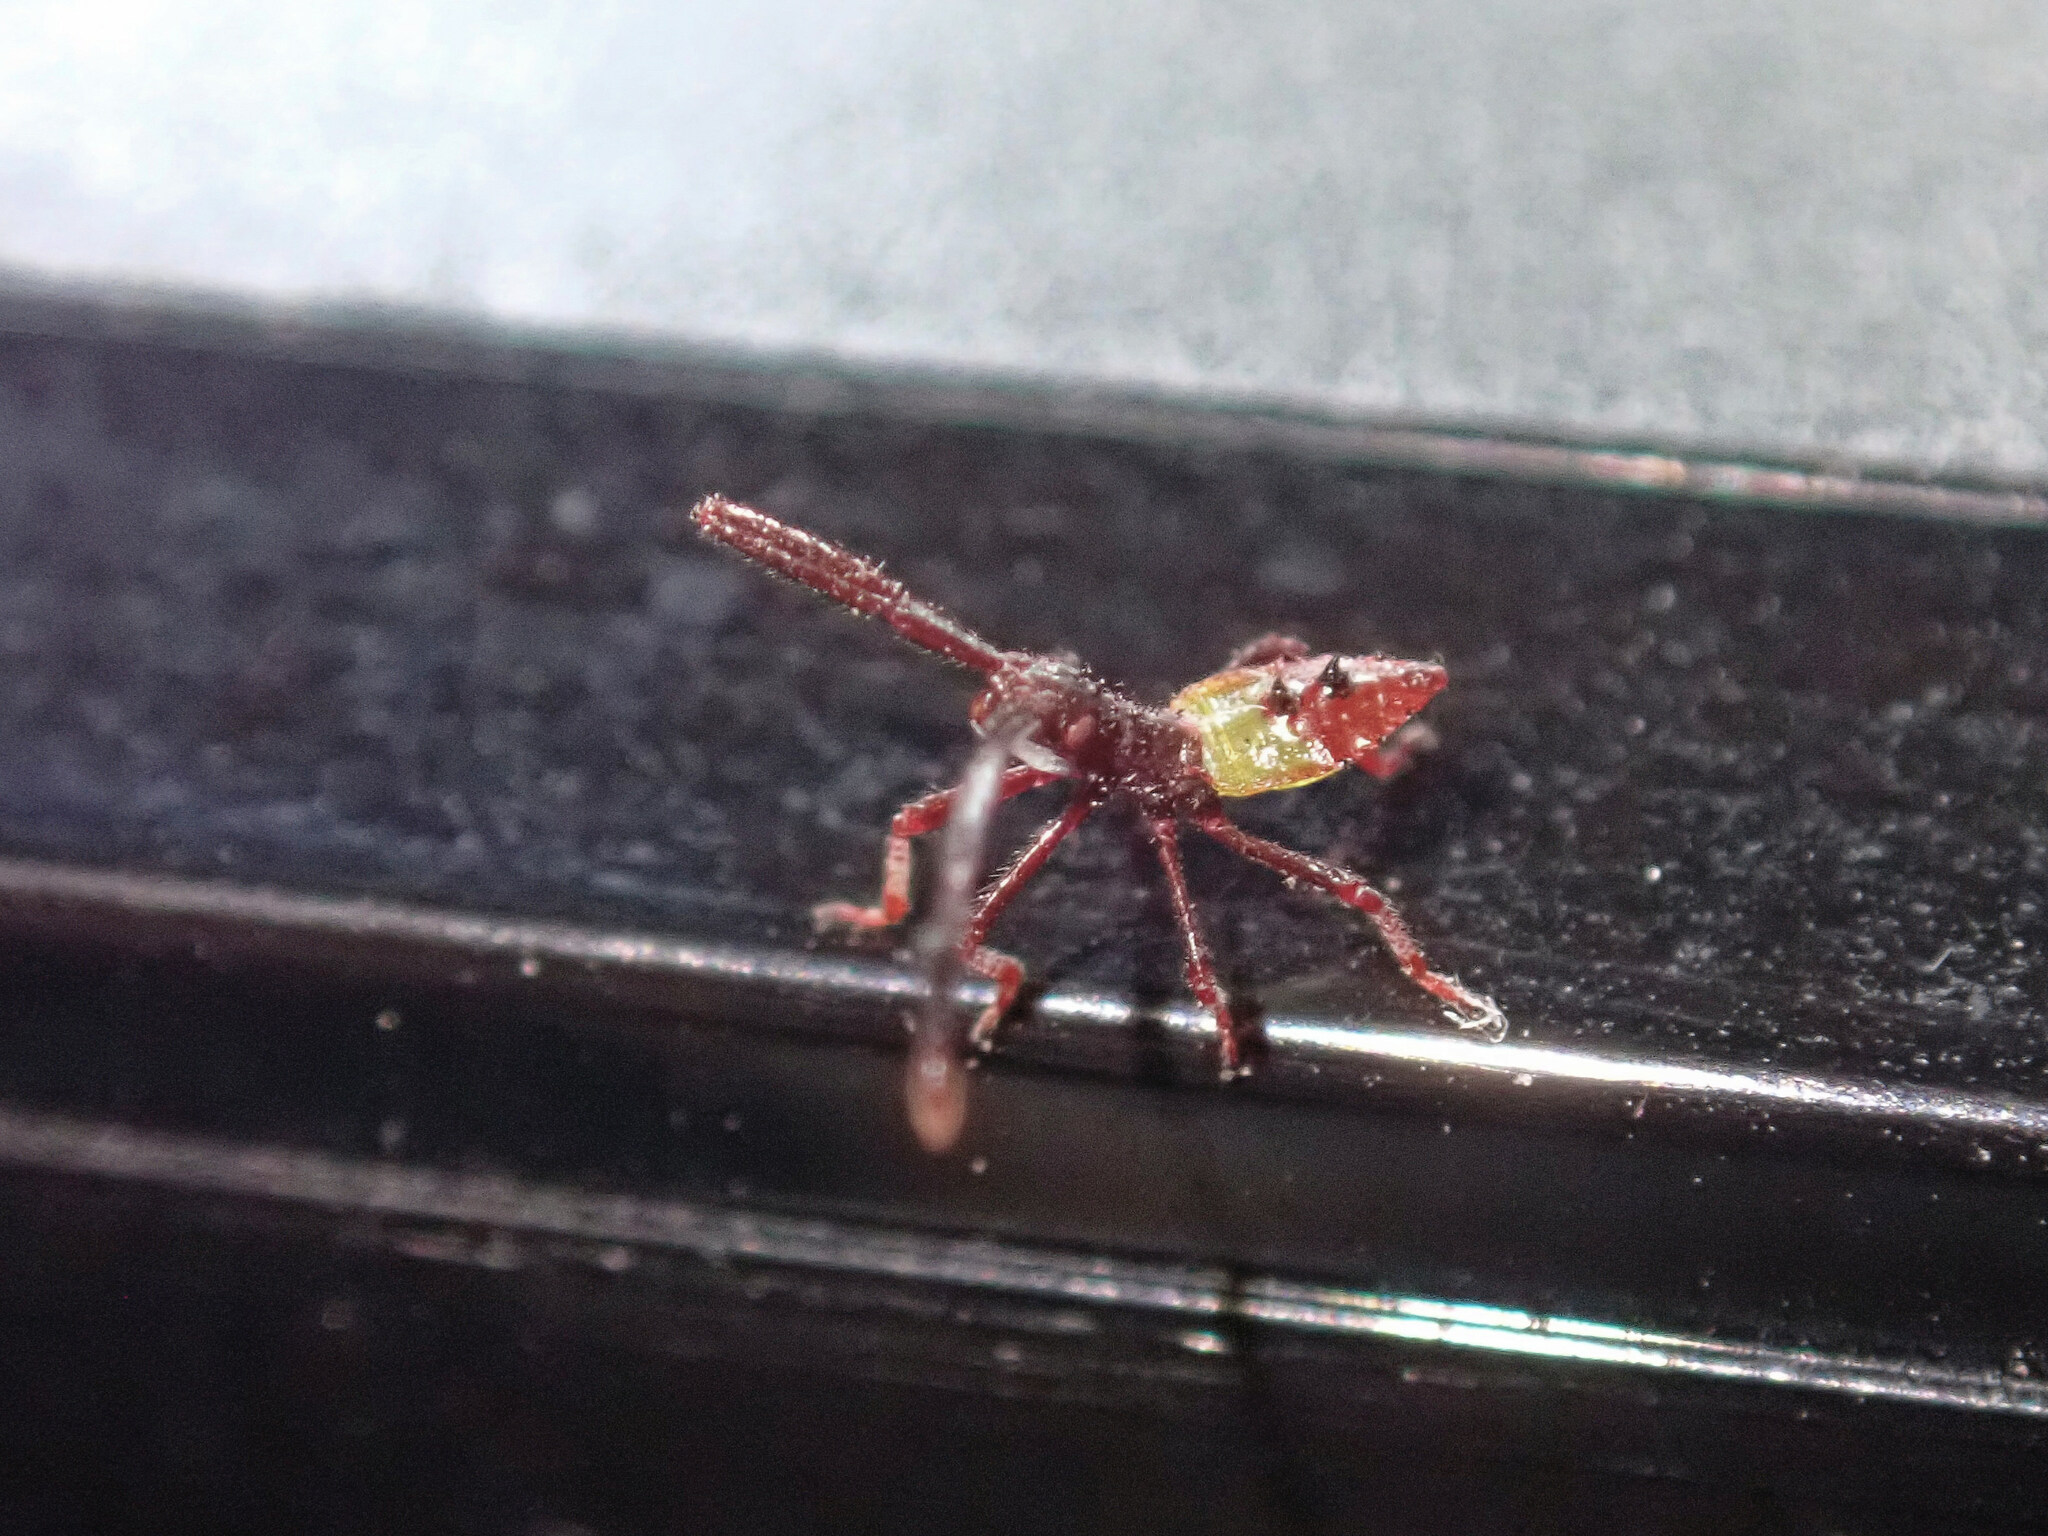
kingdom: Animalia
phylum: Arthropoda
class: Insecta
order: Hemiptera
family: Coreidae
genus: Gonocerus
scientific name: Gonocerus acuteangulatus
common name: Box bug
